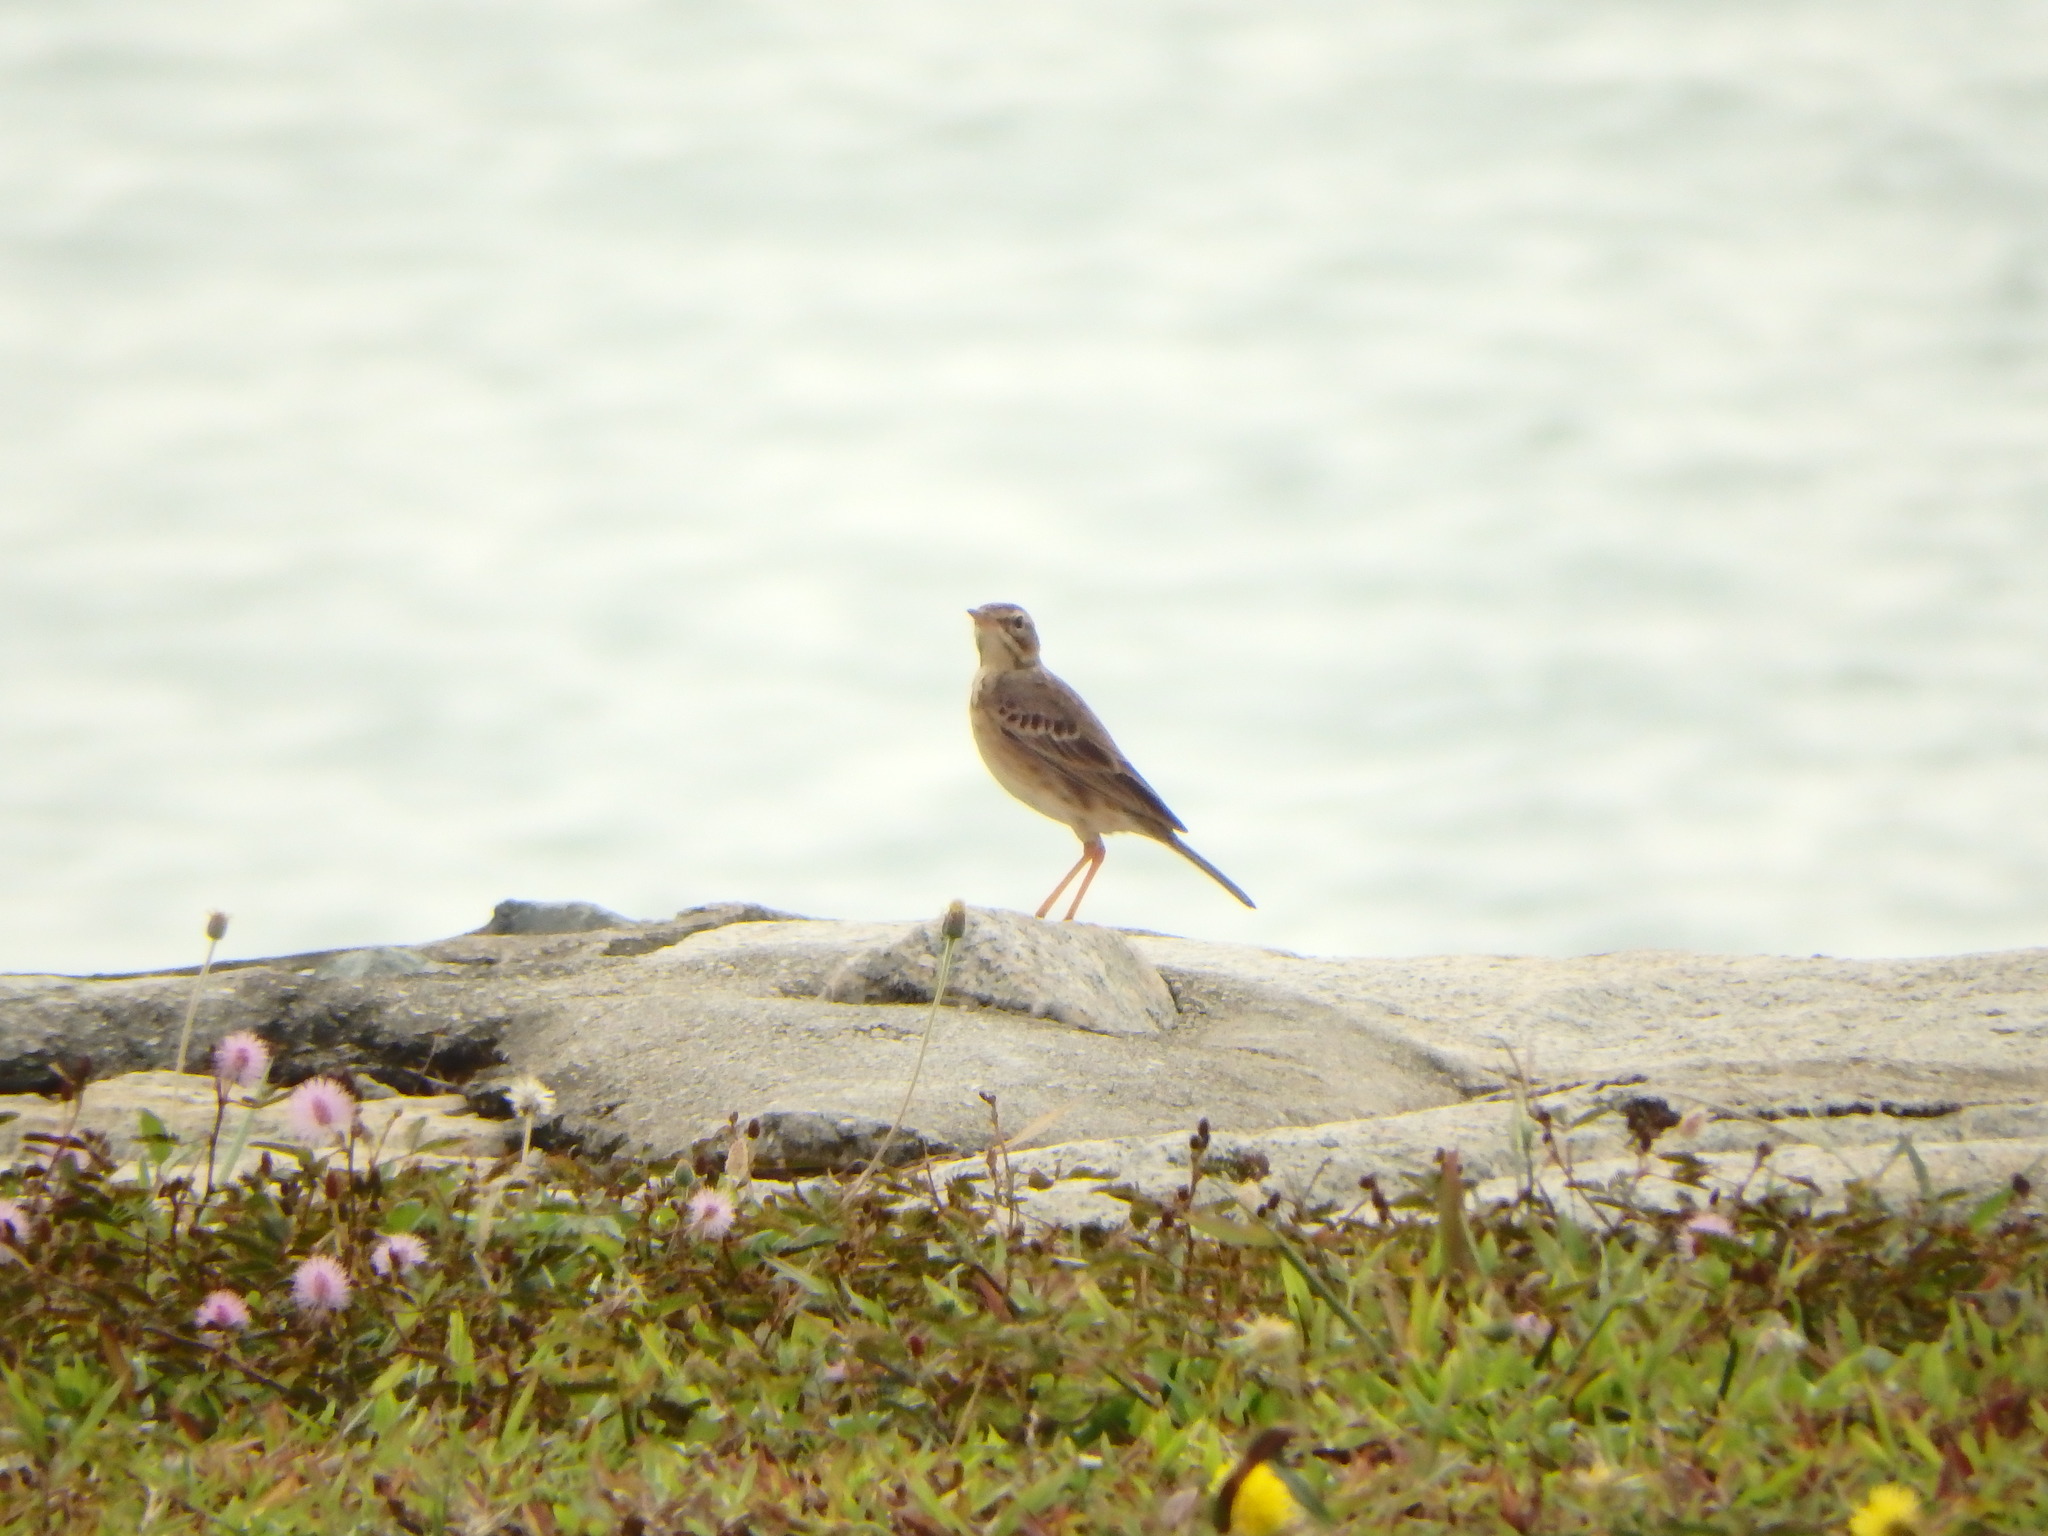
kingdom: Animalia
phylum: Chordata
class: Aves
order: Passeriformes
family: Motacillidae
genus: Anthus
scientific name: Anthus rufulus
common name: Paddyfield pipit
